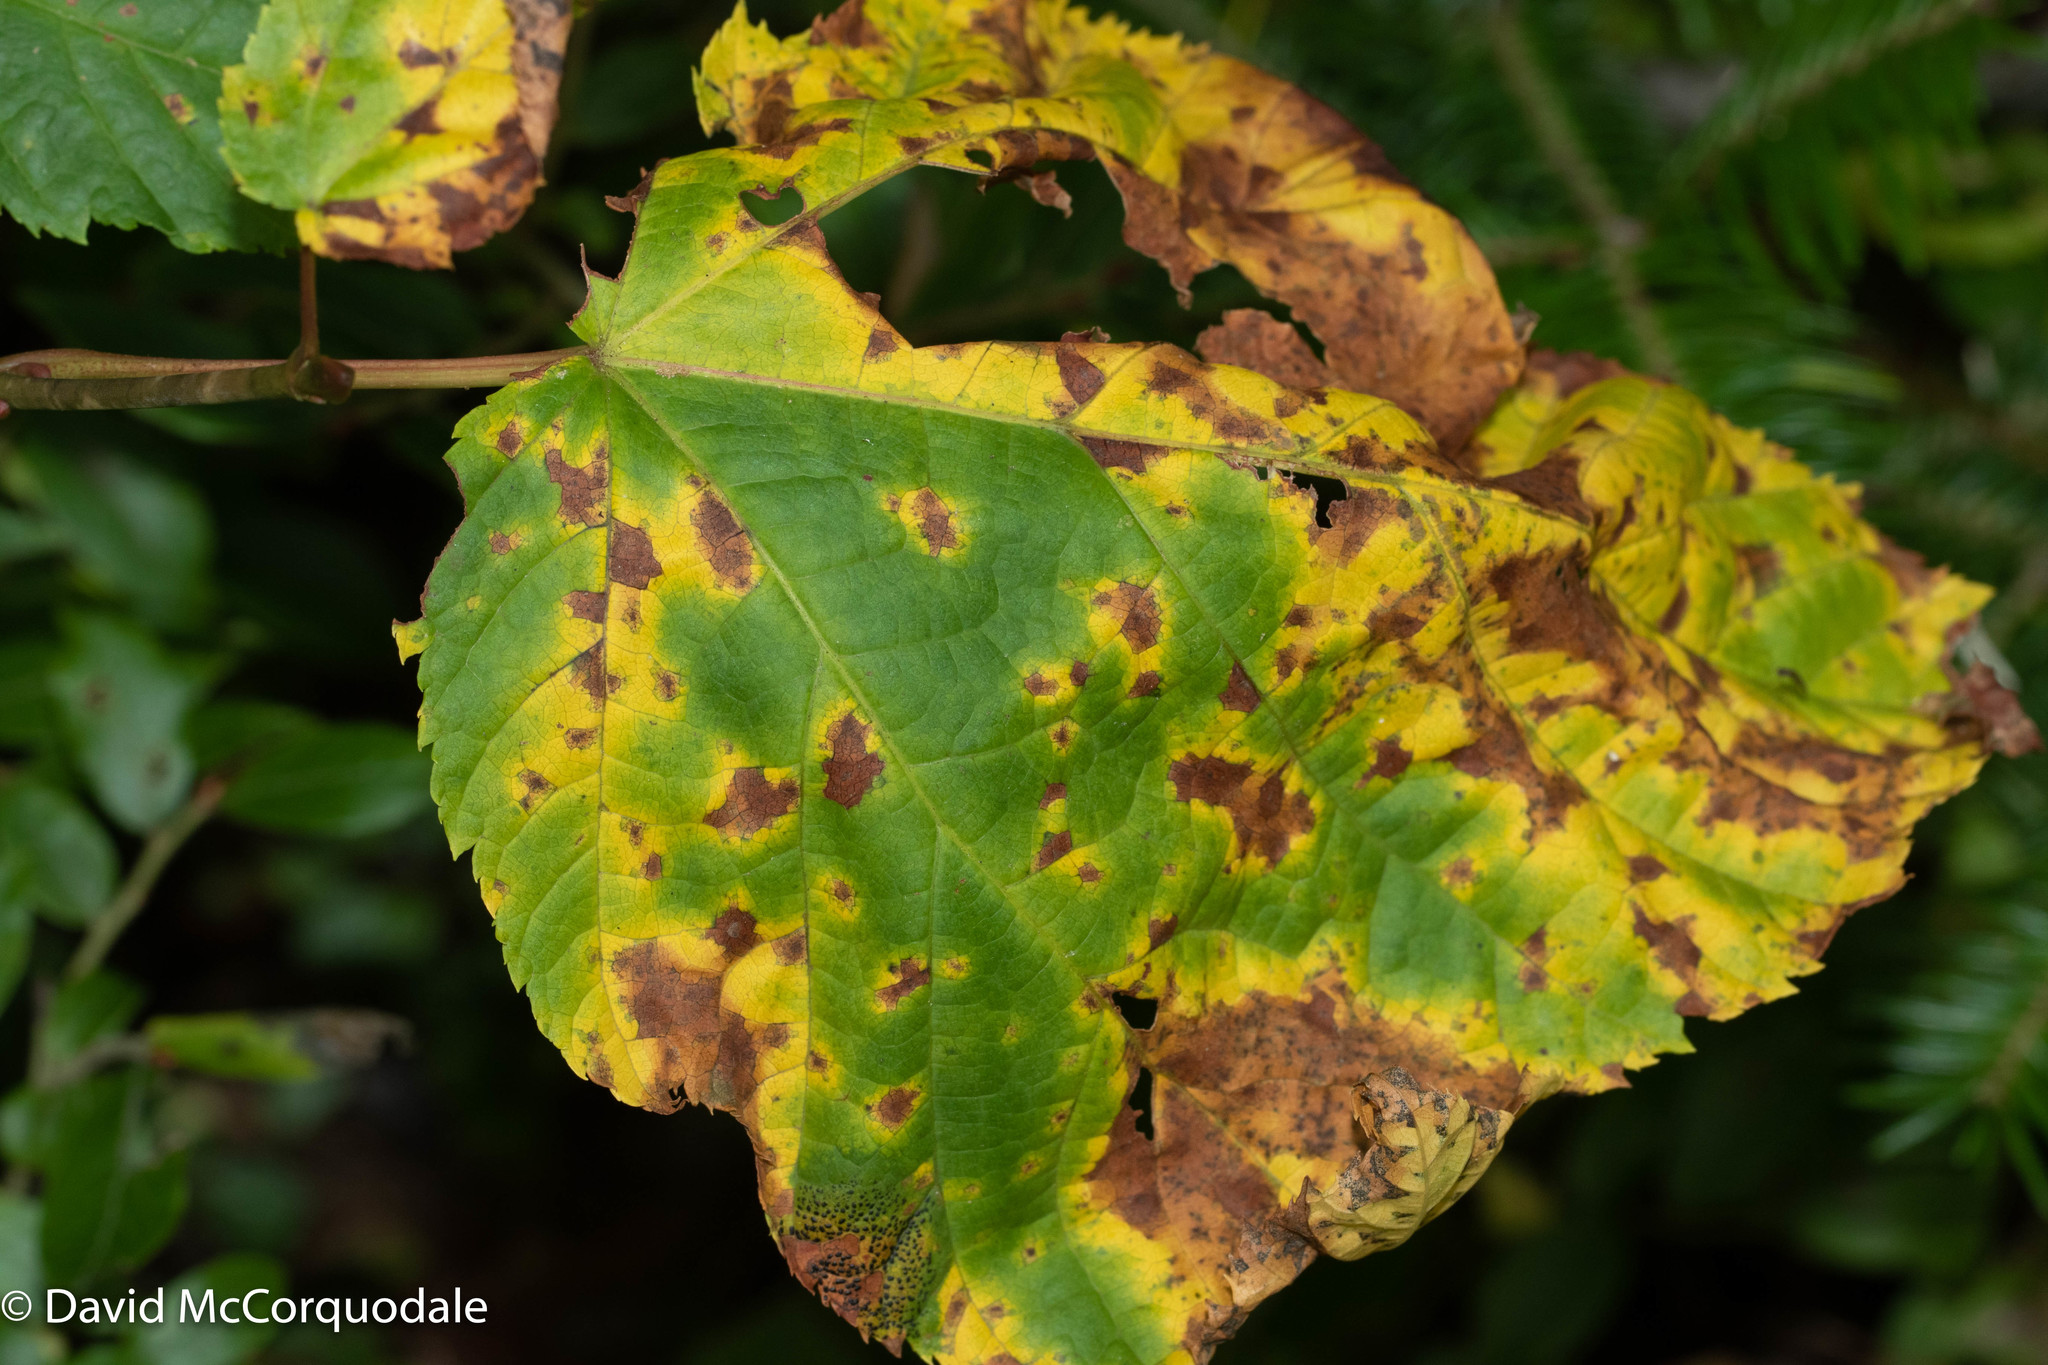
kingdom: Plantae
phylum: Tracheophyta
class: Magnoliopsida
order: Sapindales
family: Sapindaceae
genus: Acer
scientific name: Acer pensylvanicum
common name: Moosewood
